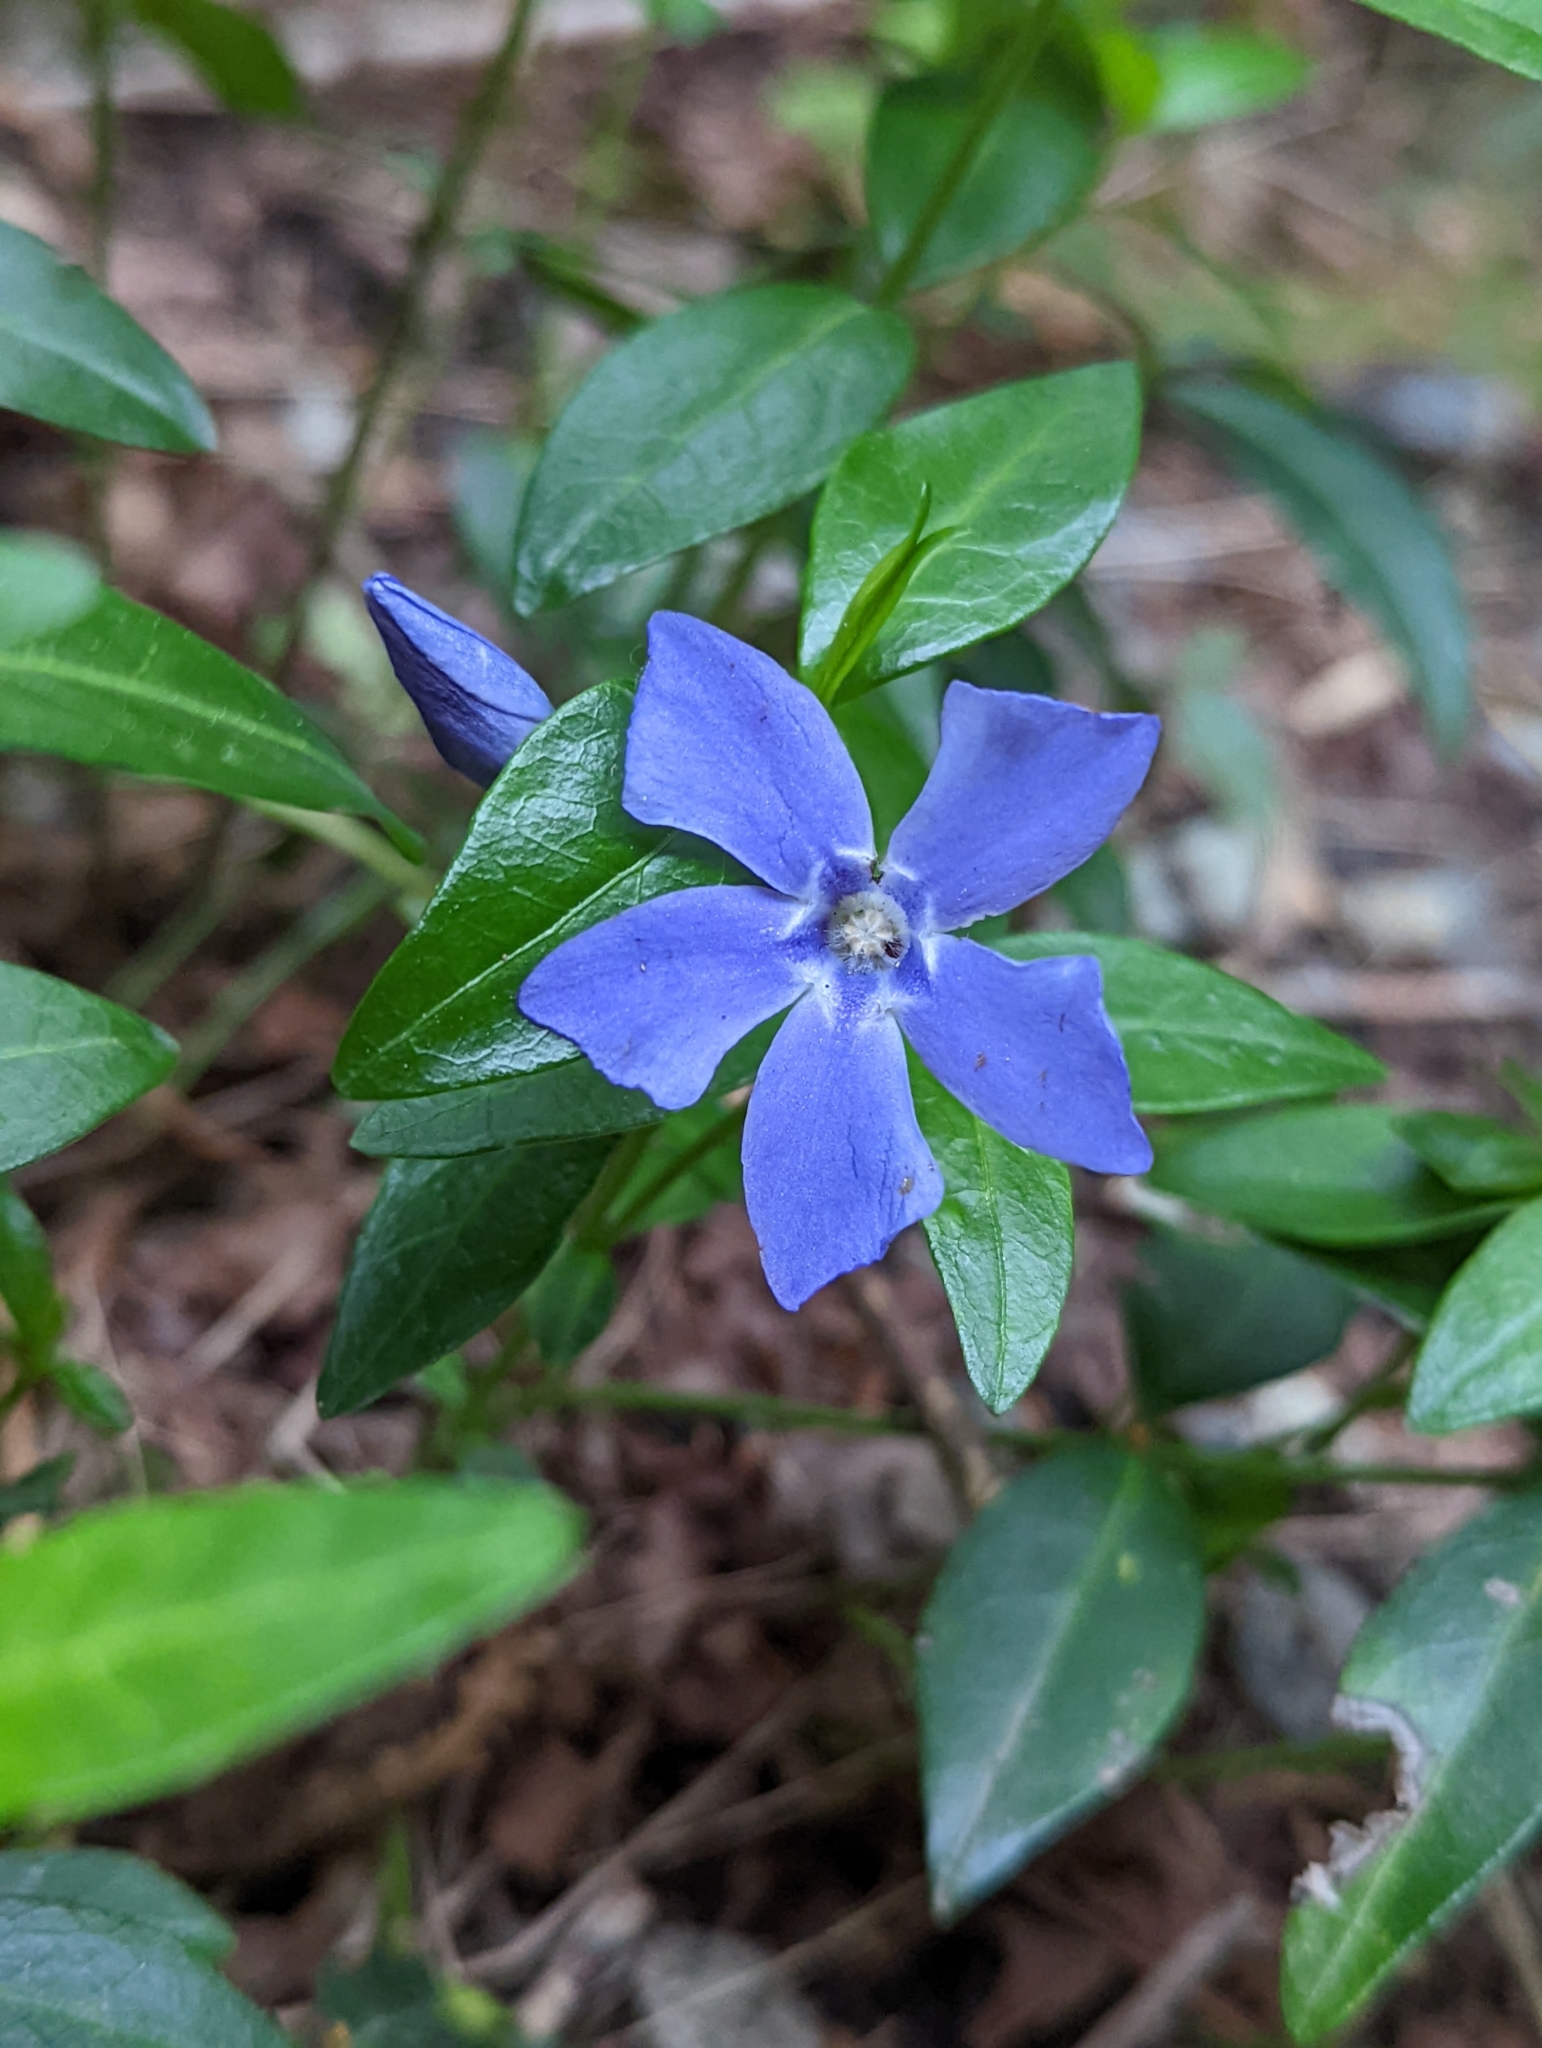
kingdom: Plantae
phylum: Tracheophyta
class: Magnoliopsida
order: Gentianales
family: Apocynaceae
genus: Vinca
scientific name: Vinca minor
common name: Lesser periwinkle
